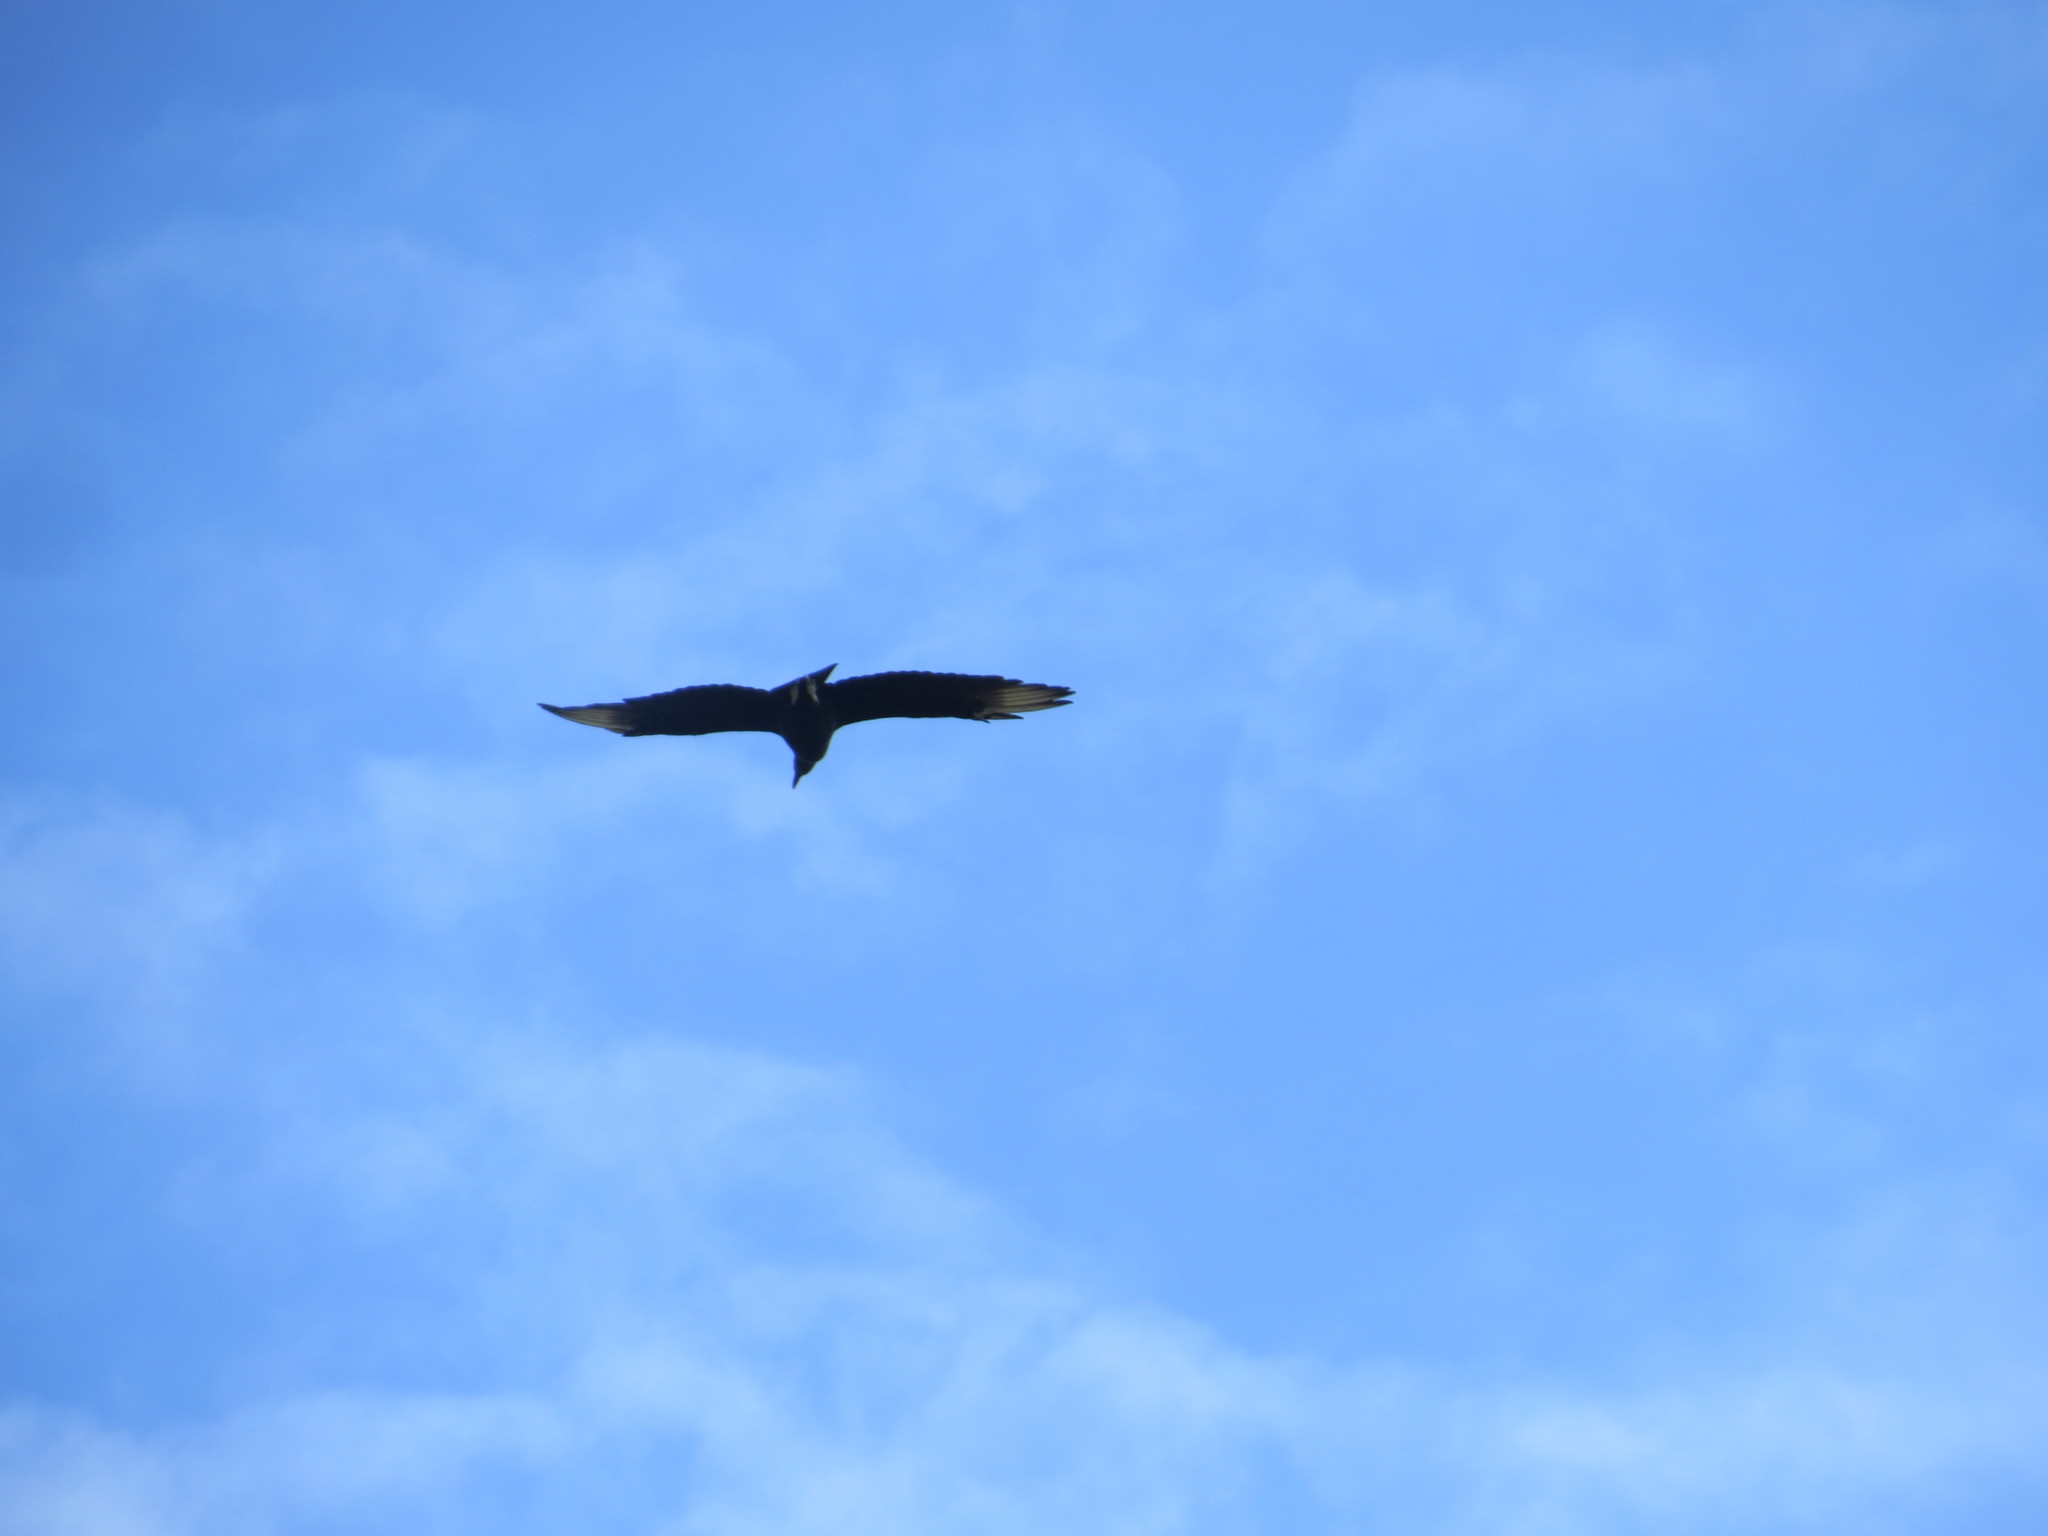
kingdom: Animalia
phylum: Chordata
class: Aves
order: Accipitriformes
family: Cathartidae
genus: Coragyps
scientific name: Coragyps atratus
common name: Black vulture
